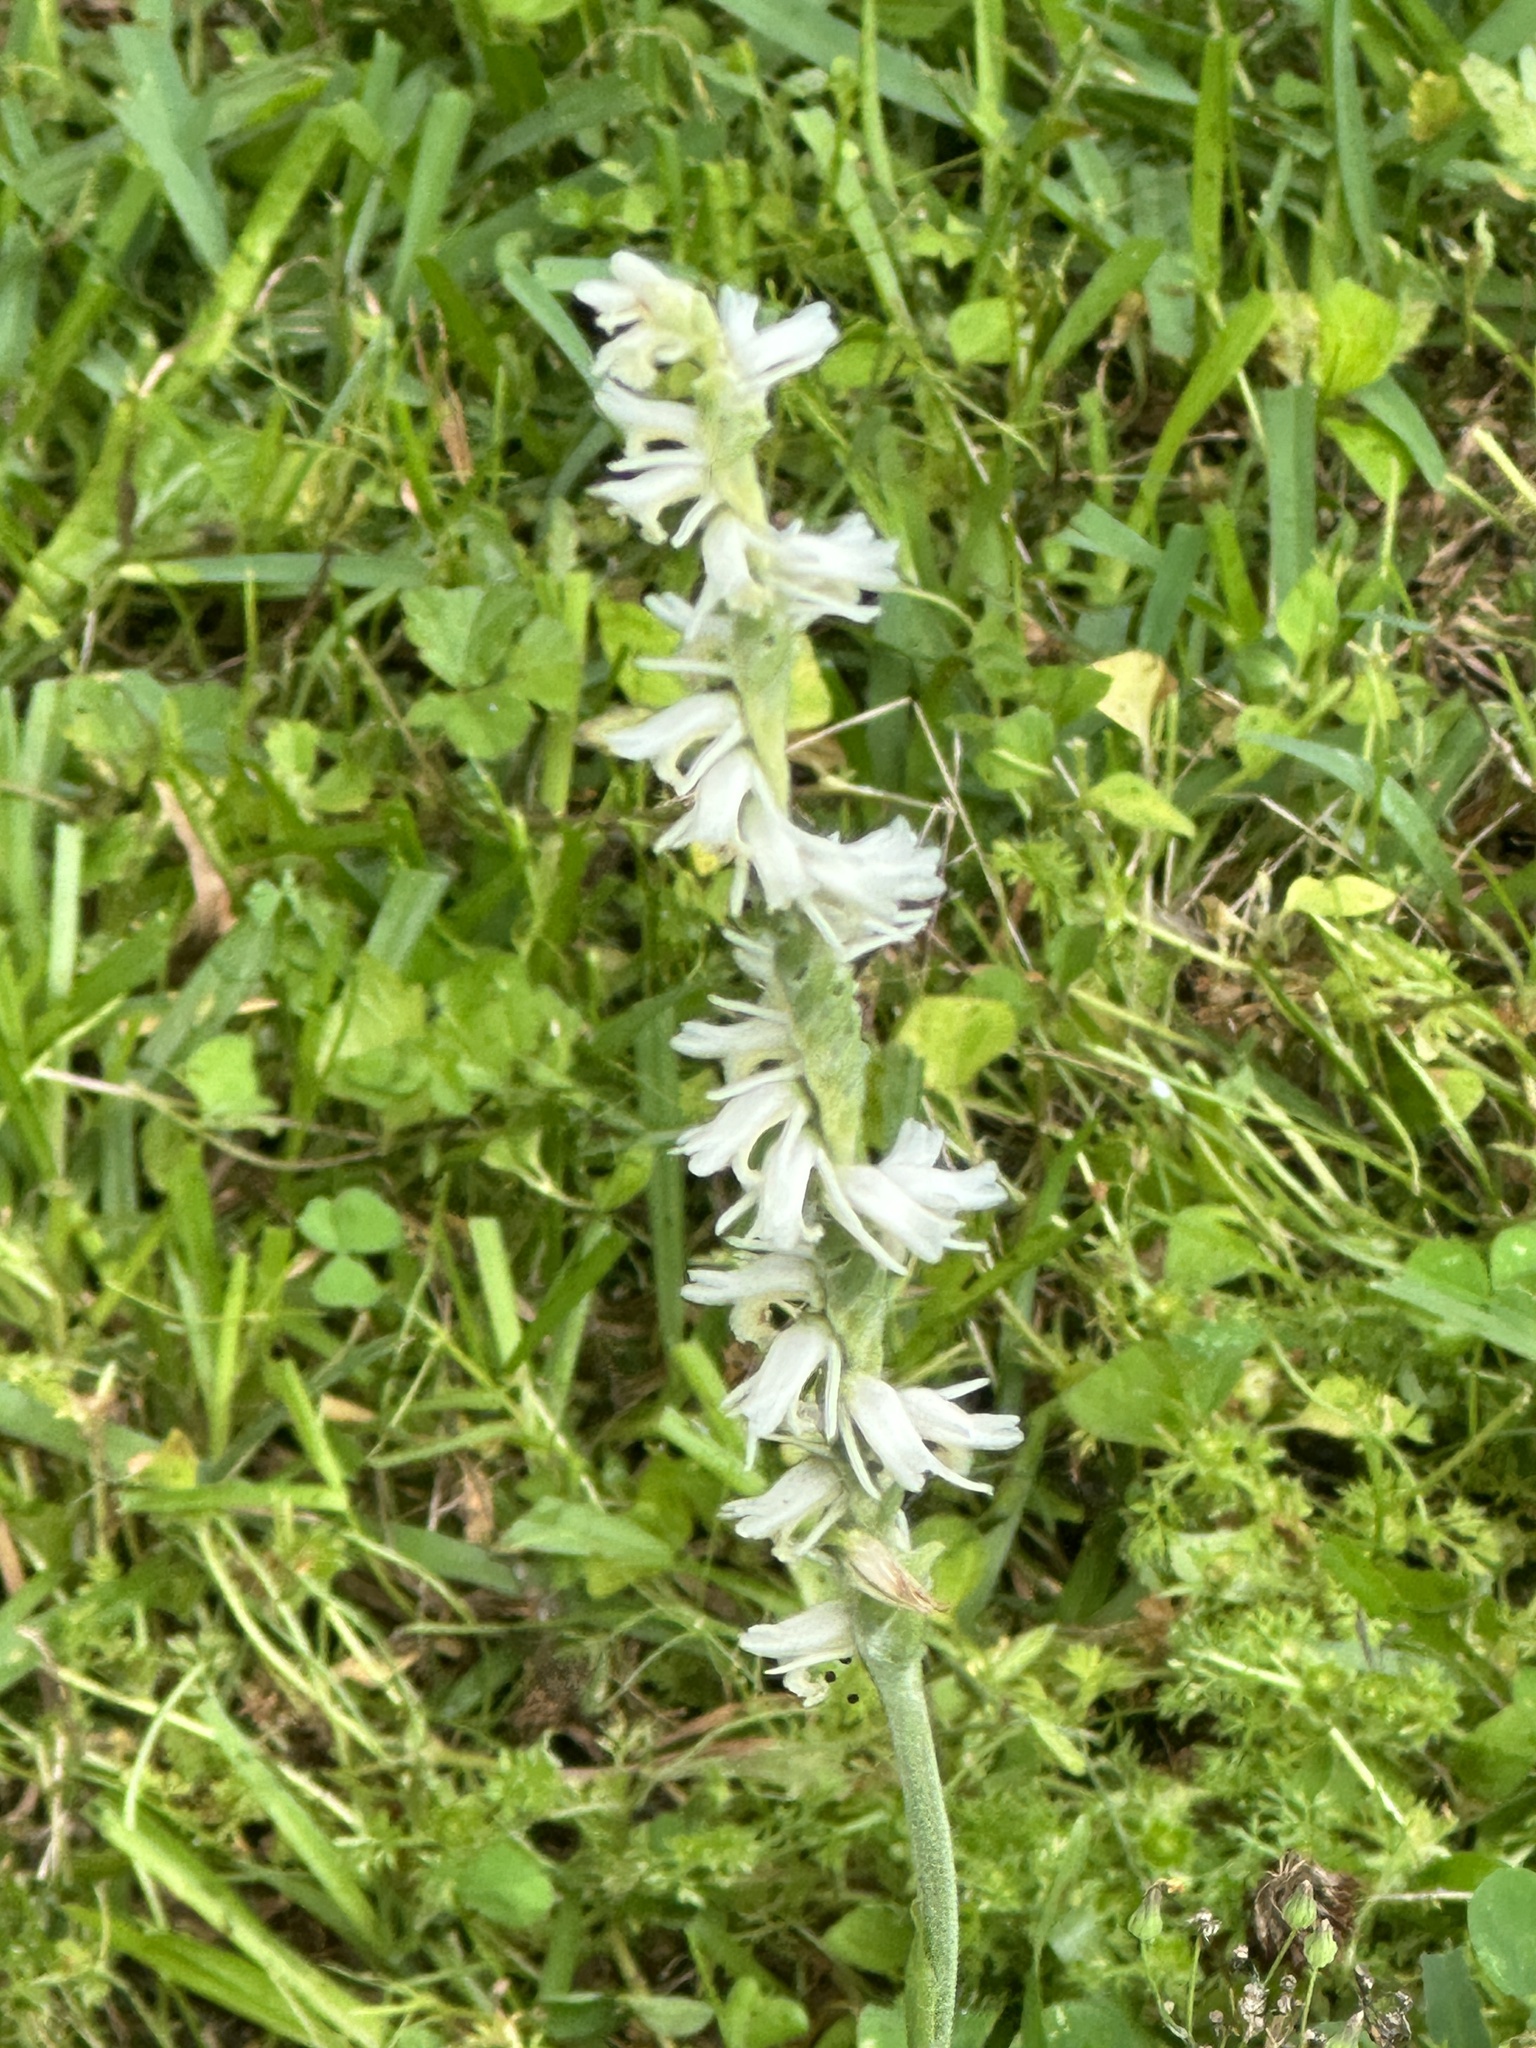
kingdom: Plantae
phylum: Tracheophyta
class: Liliopsida
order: Asparagales
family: Orchidaceae
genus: Spiranthes
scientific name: Spiranthes vernalis
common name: Spring ladies'-tresses
